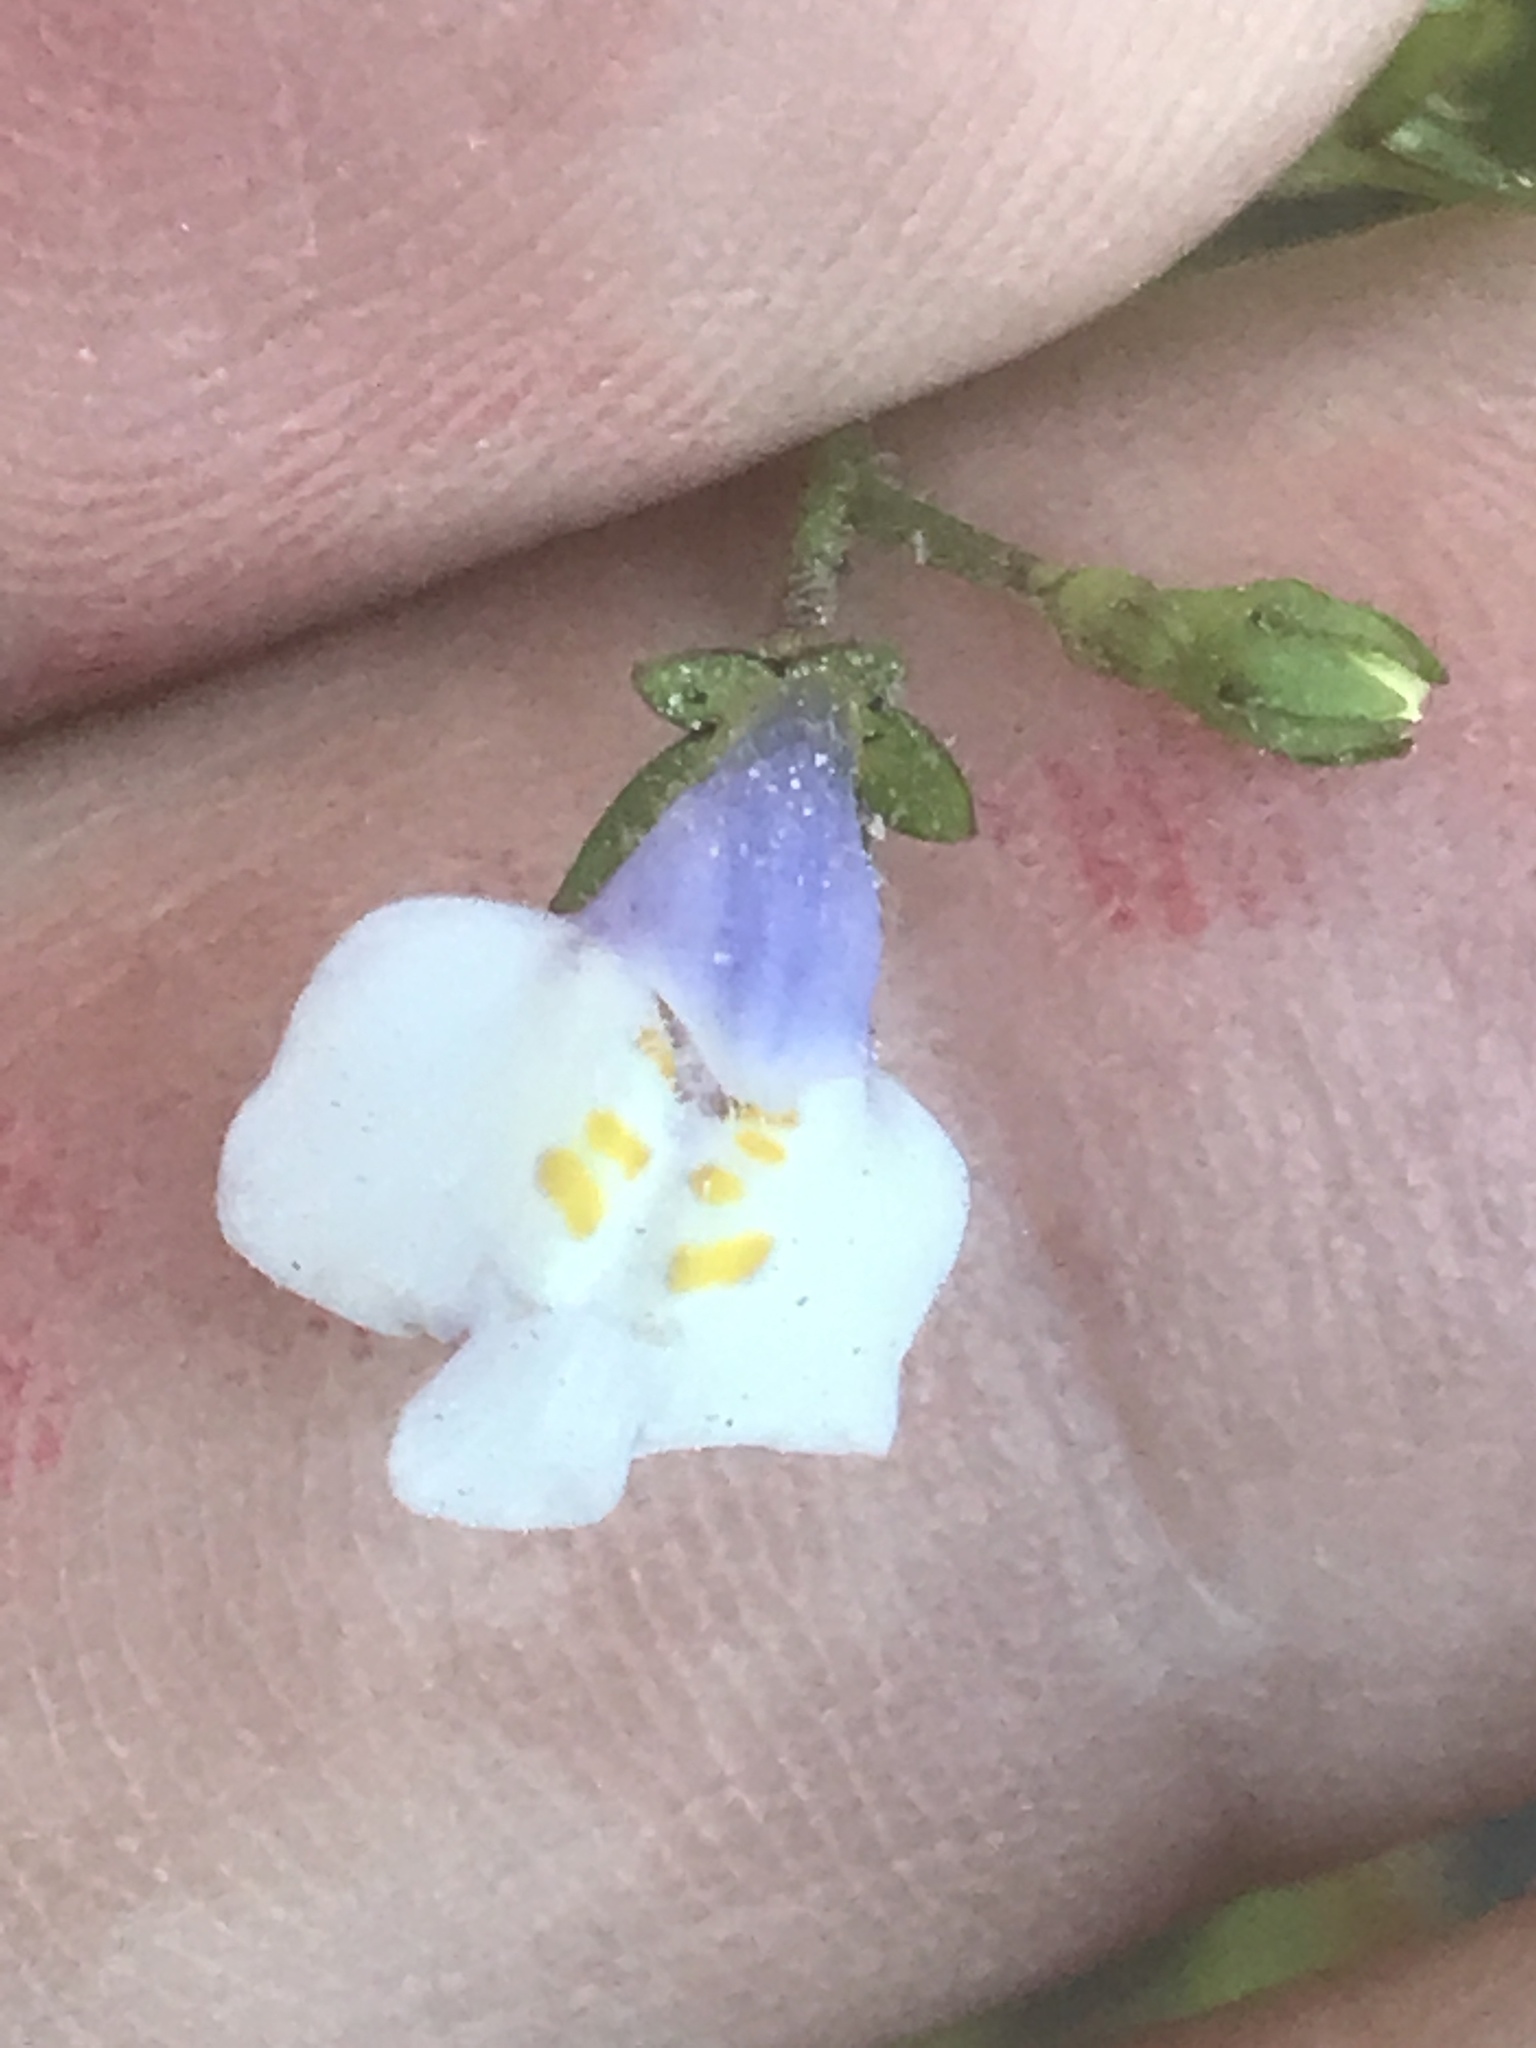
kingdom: Plantae
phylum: Tracheophyta
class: Magnoliopsida
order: Lamiales
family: Mazaceae
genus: Mazus
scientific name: Mazus pumilus
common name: Japanese mazus
